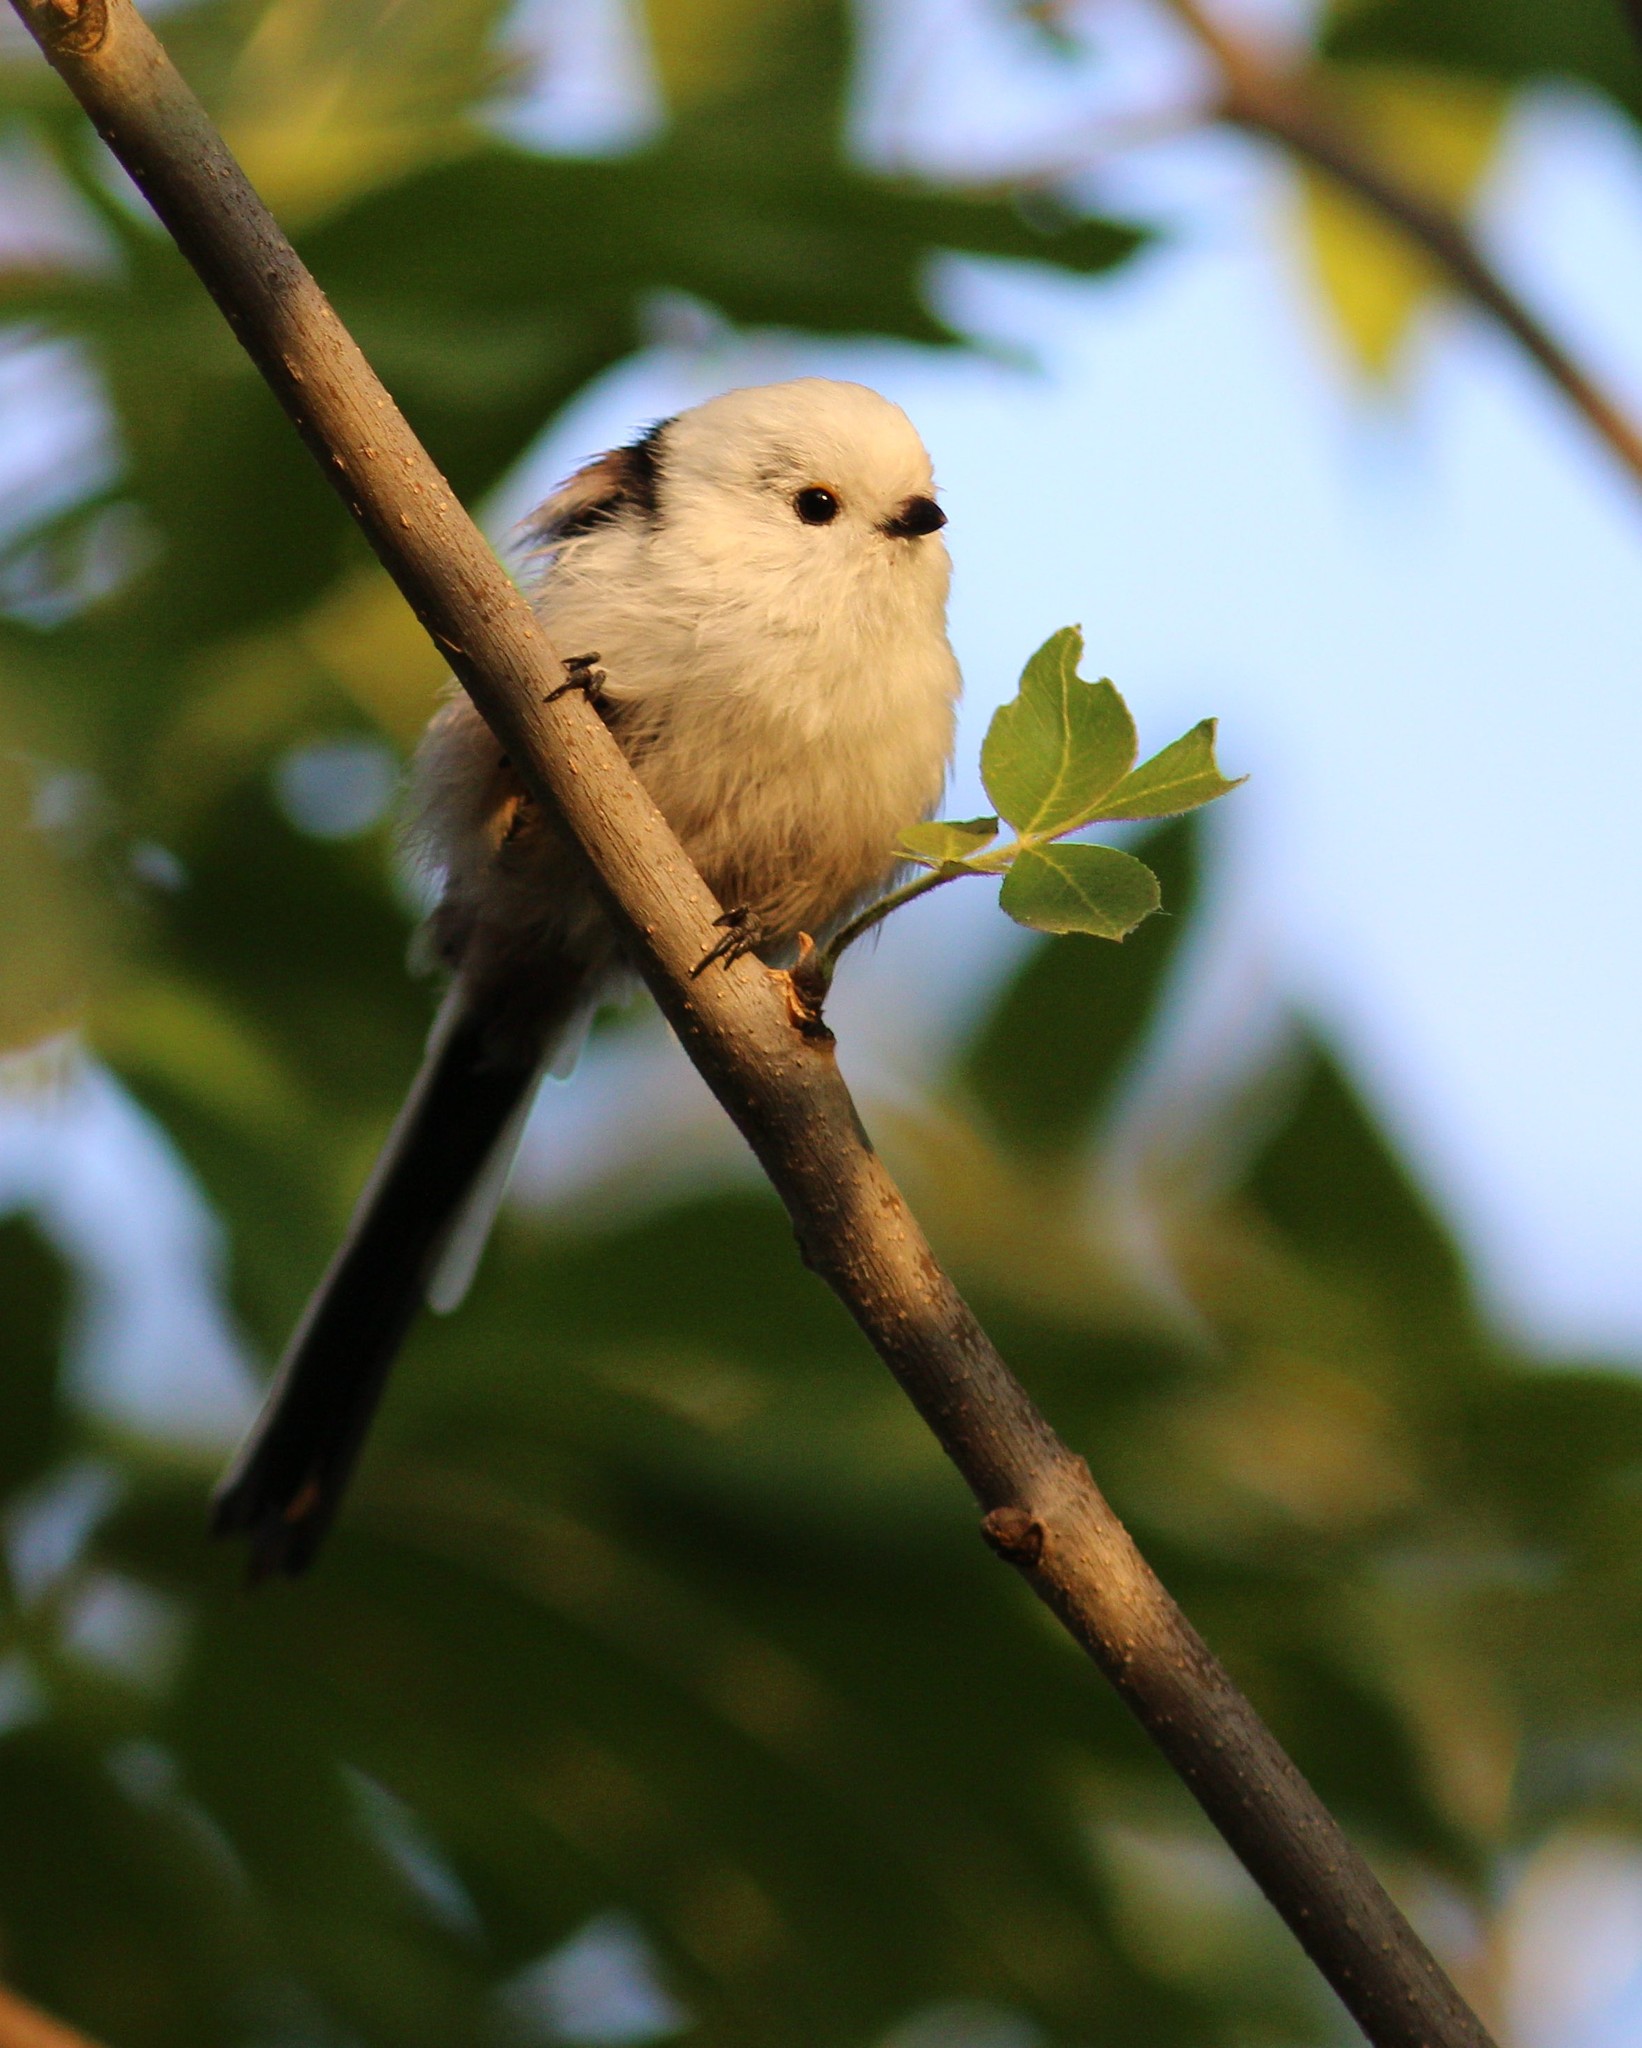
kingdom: Animalia
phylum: Chordata
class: Aves
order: Passeriformes
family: Aegithalidae
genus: Aegithalos
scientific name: Aegithalos caudatus
